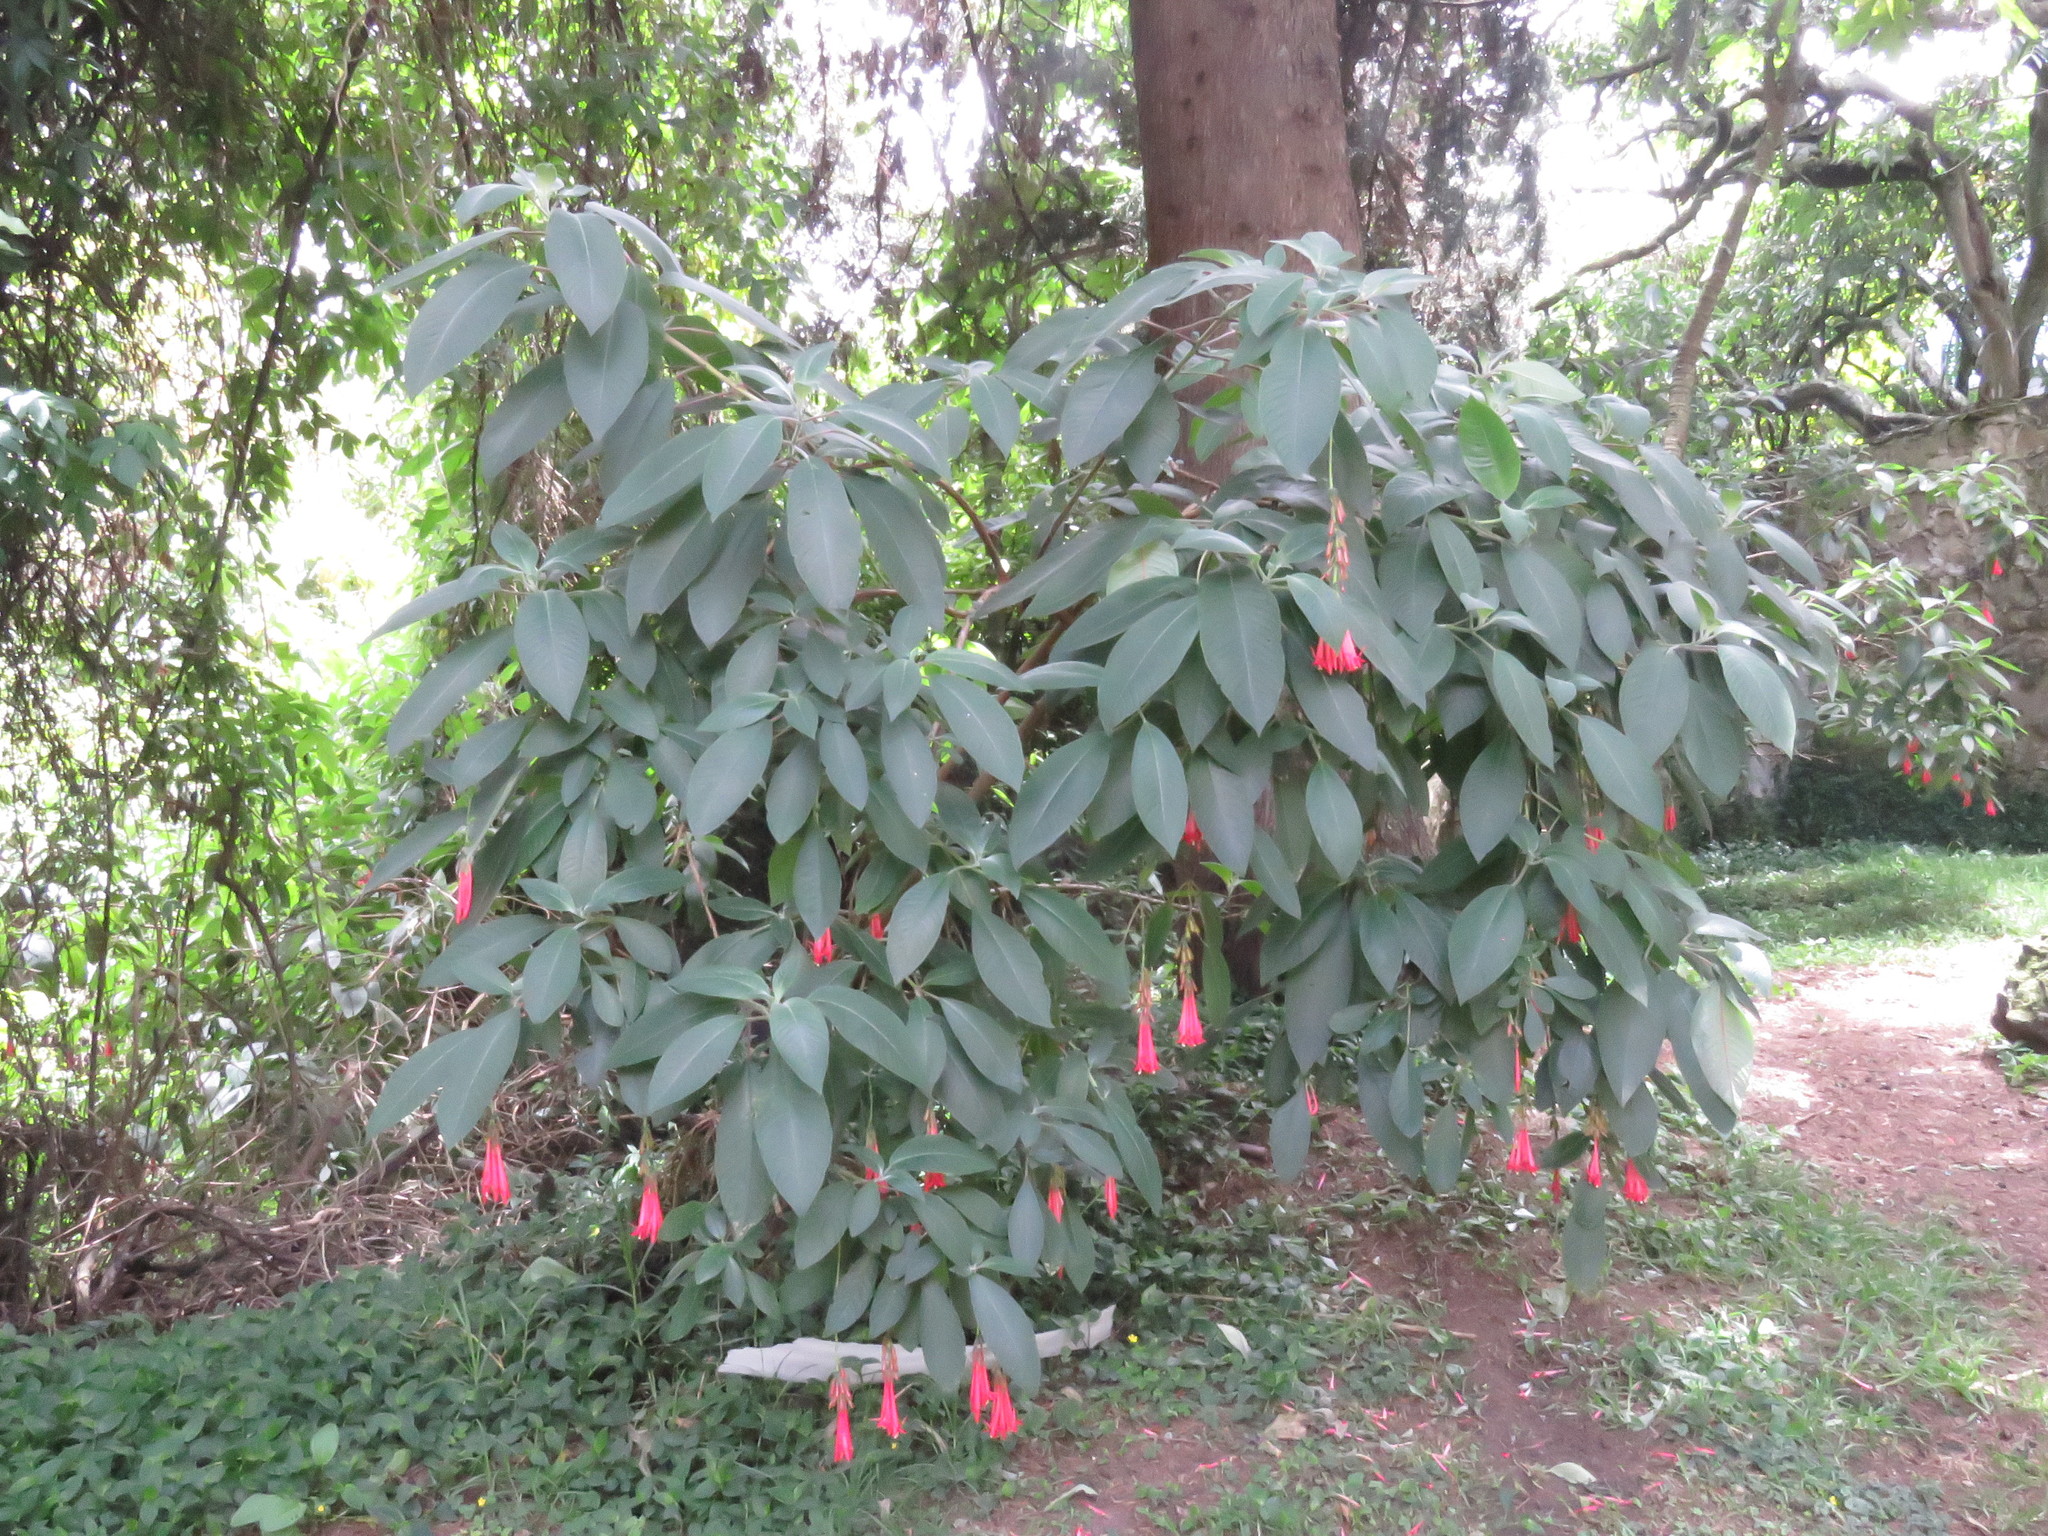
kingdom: Plantae
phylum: Tracheophyta
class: Magnoliopsida
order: Myrtales
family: Onagraceae
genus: Fuchsia
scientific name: Fuchsia boliviana
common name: Bolivian fuchsia
